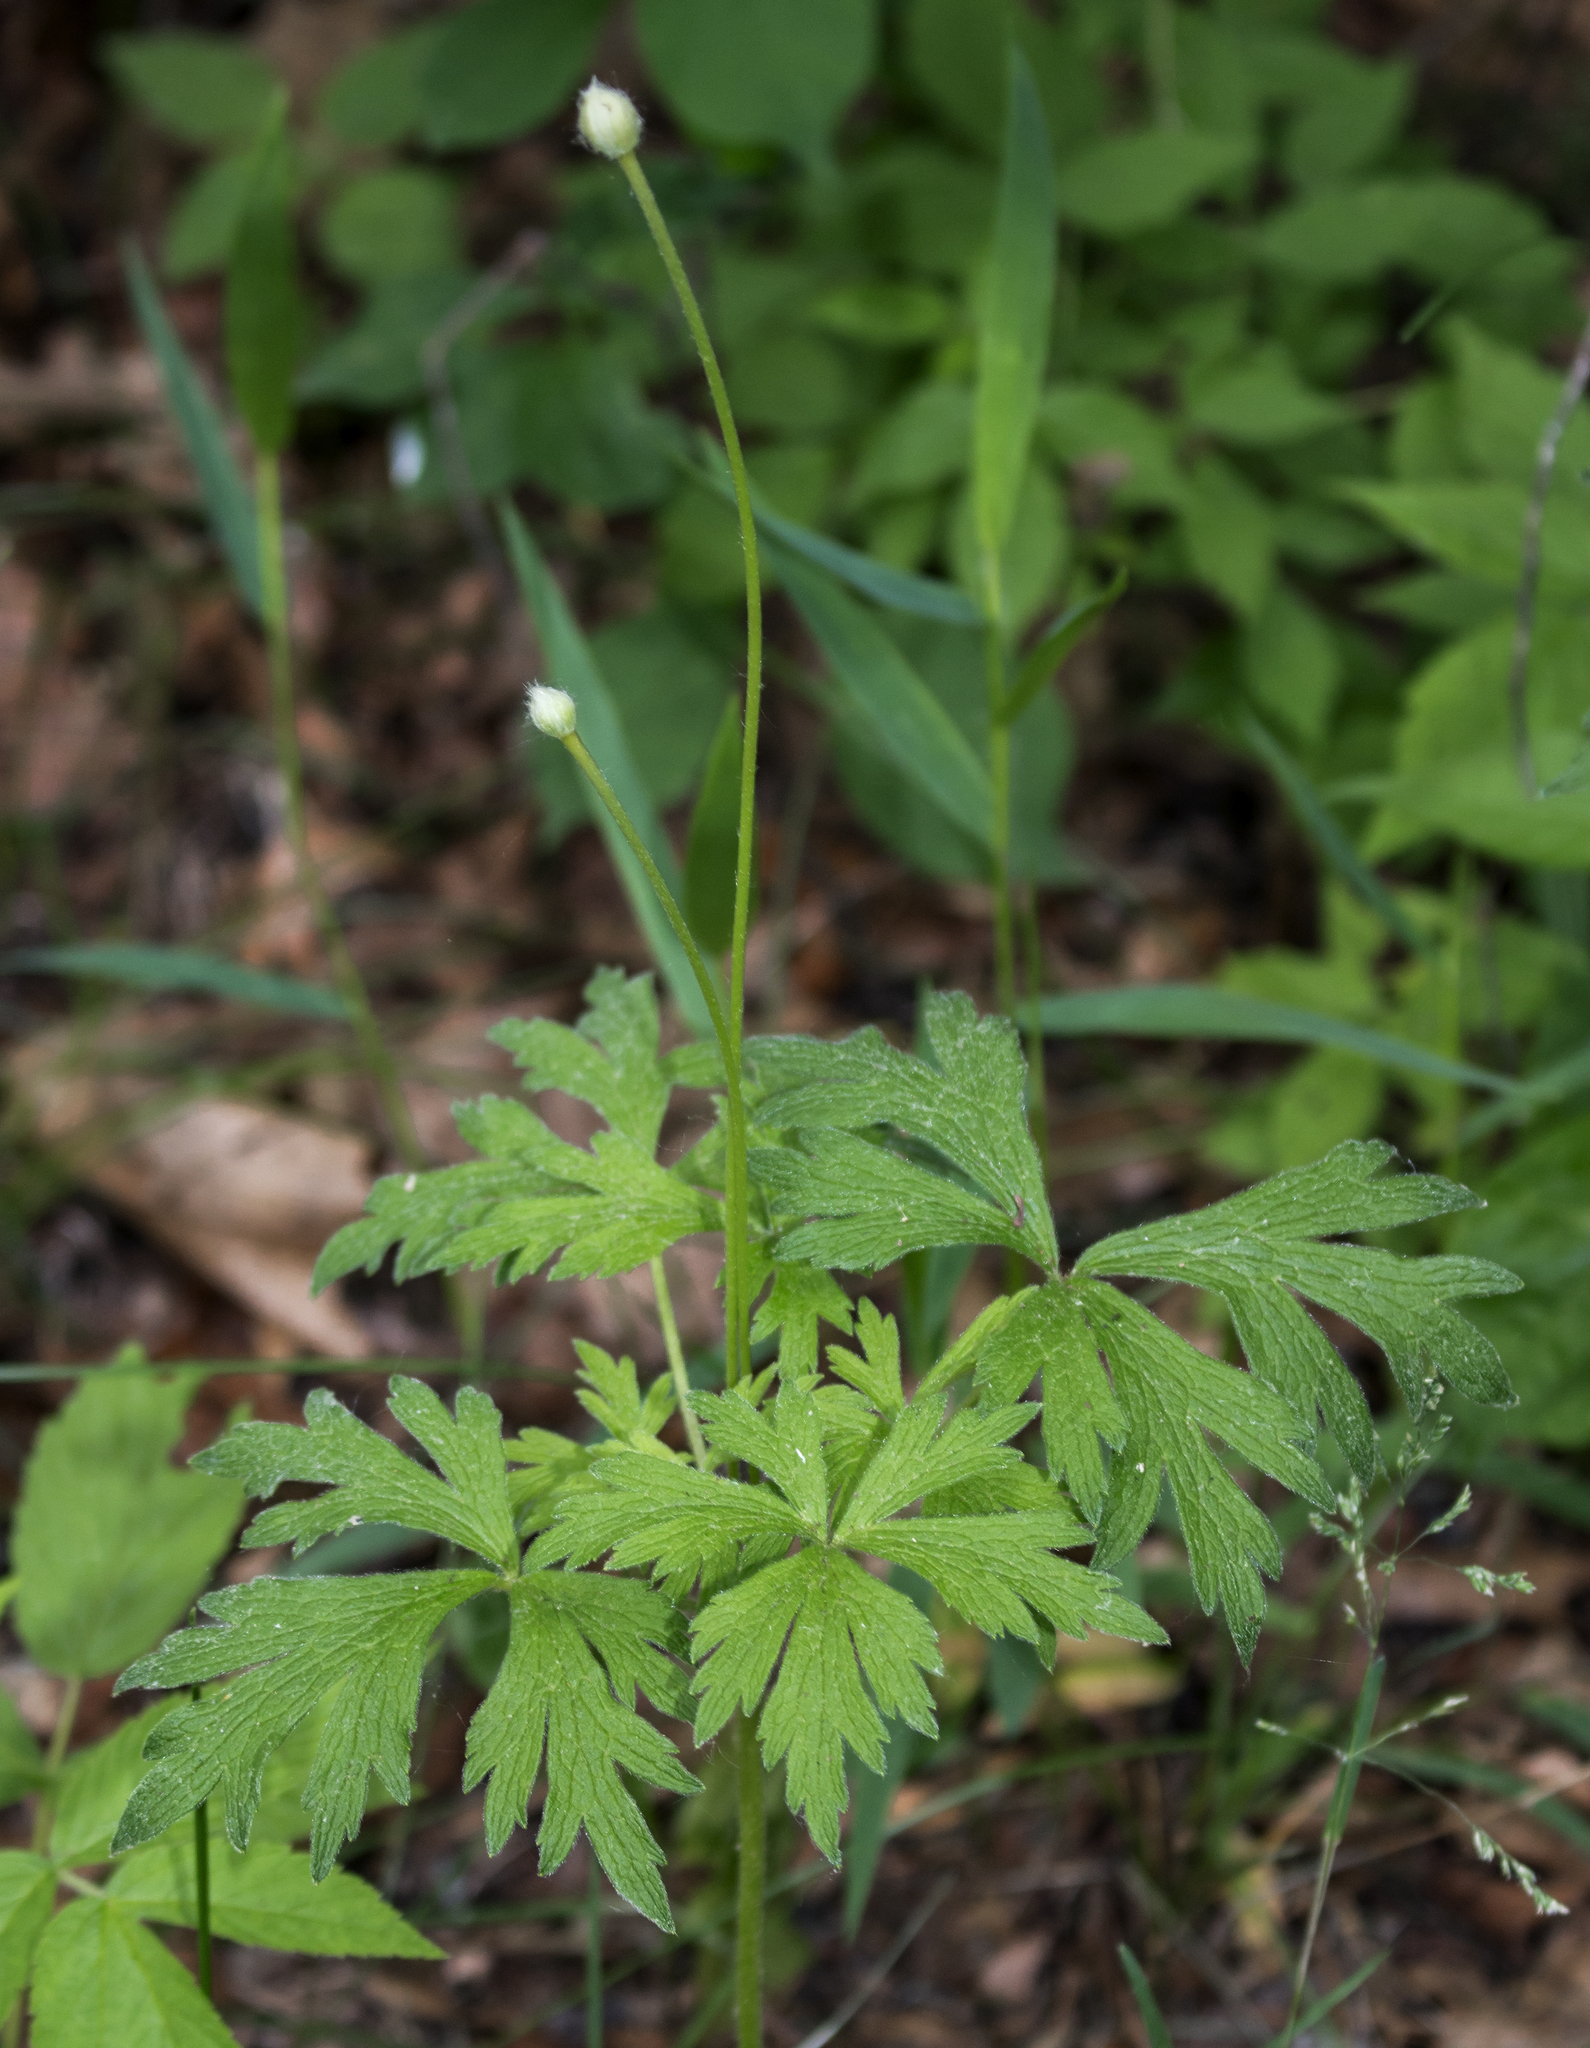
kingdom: Plantae
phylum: Tracheophyta
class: Magnoliopsida
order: Ranunculales
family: Ranunculaceae
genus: Anemone
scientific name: Anemone cylindrica
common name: Candle anemone
